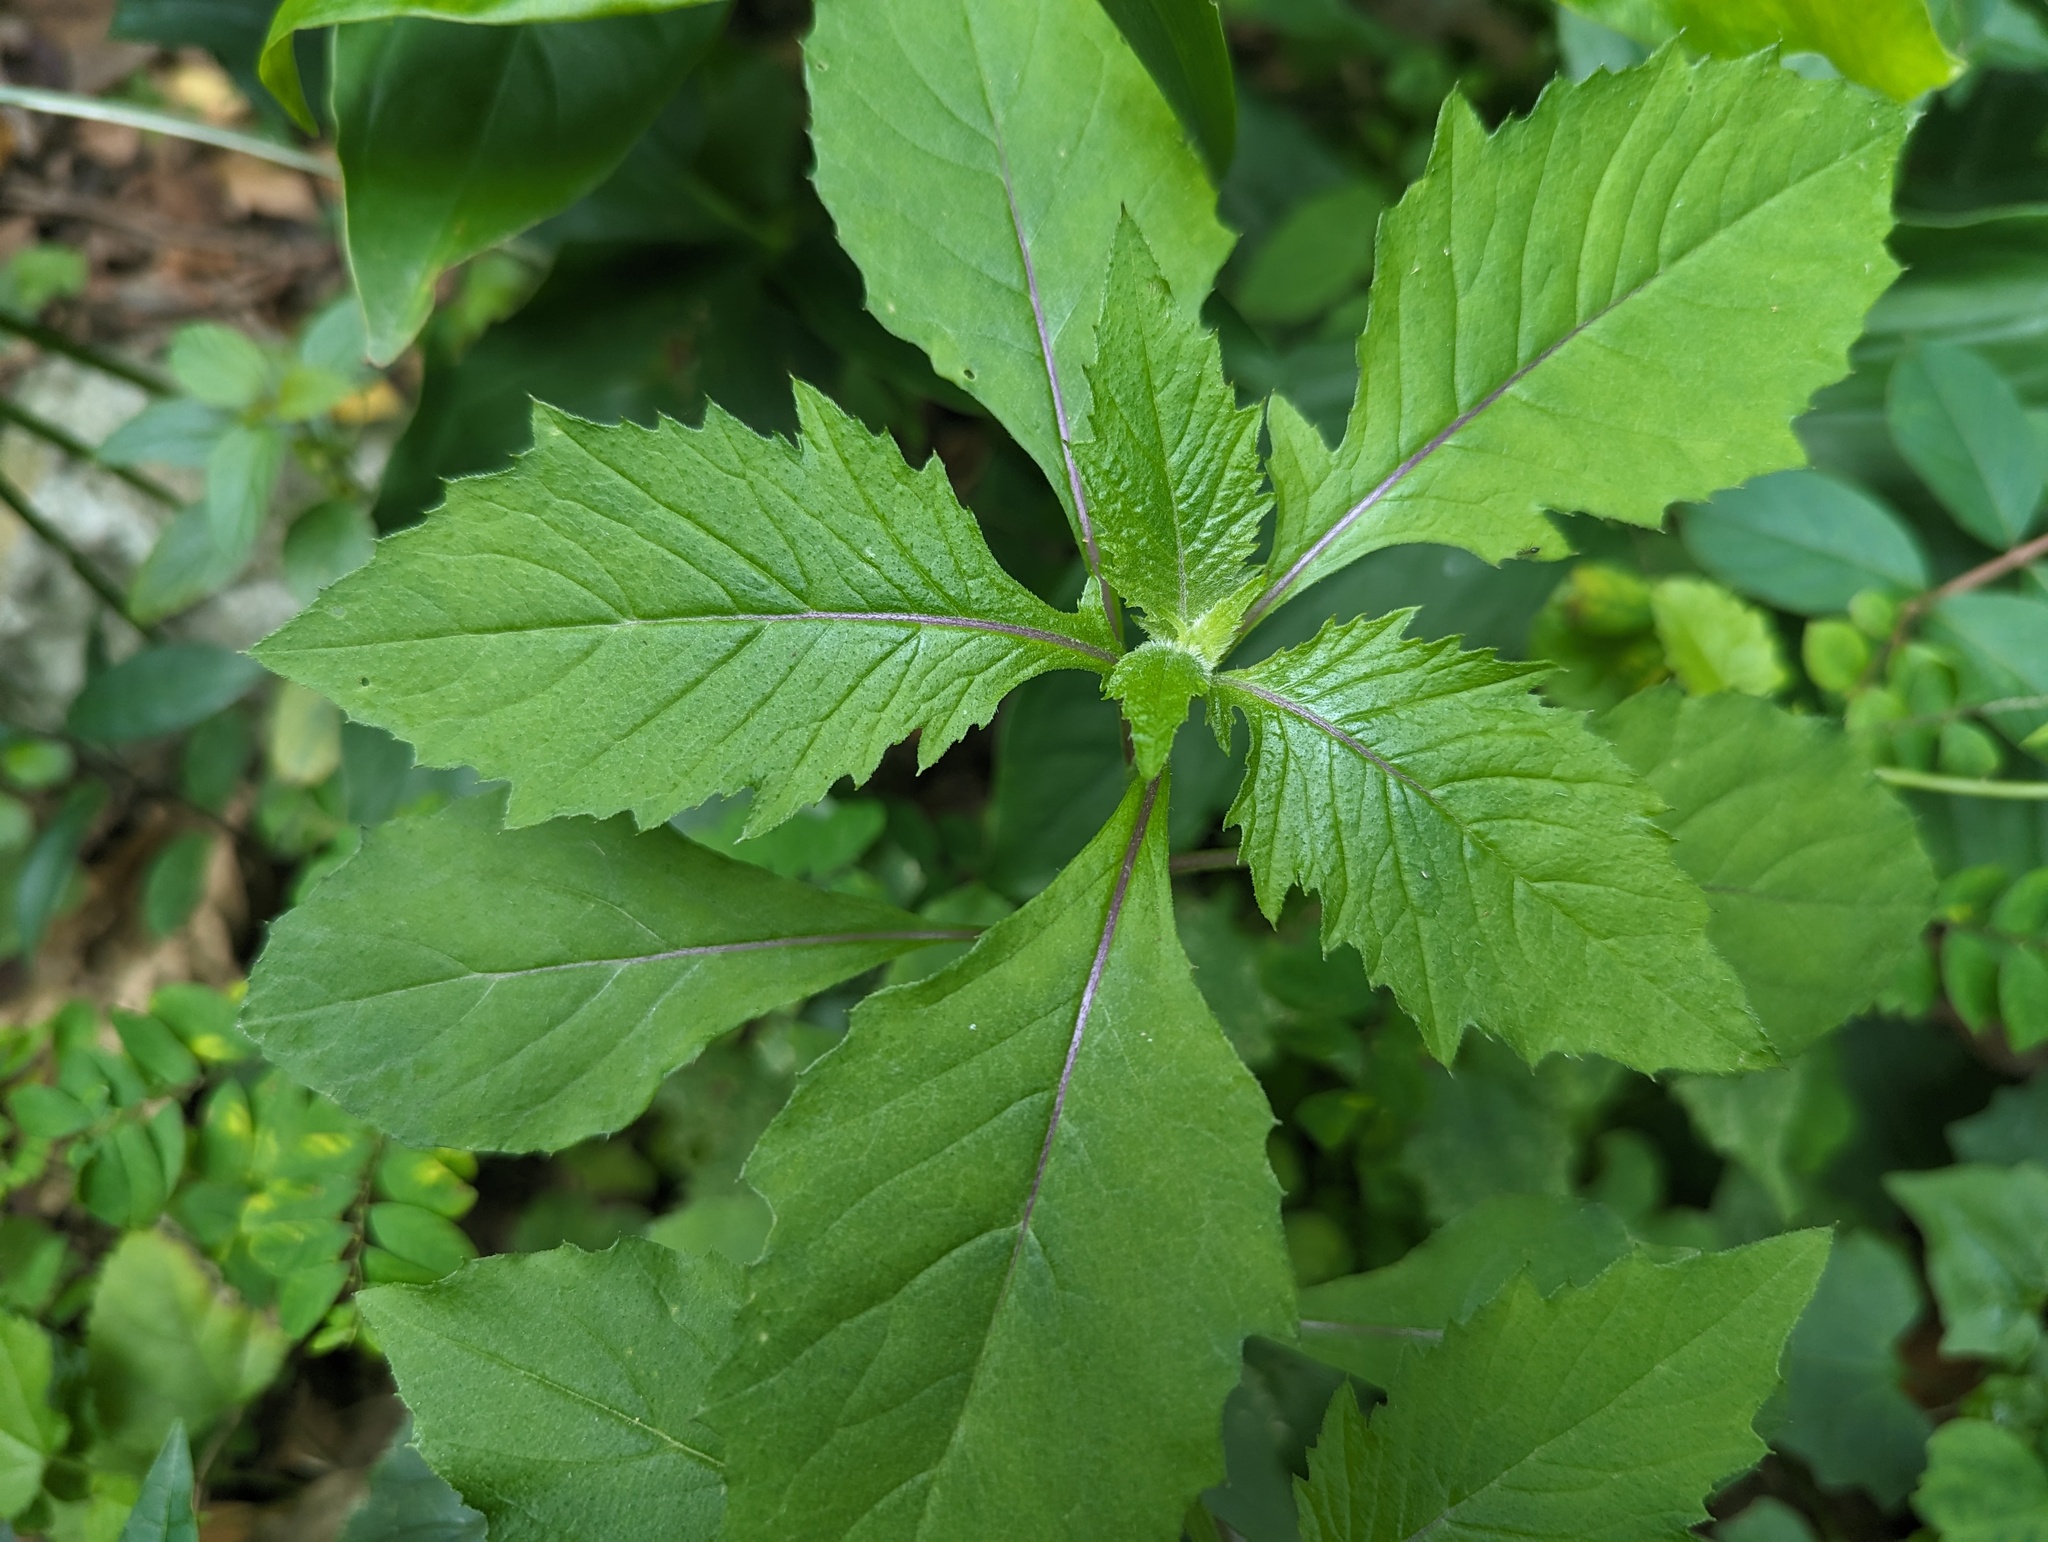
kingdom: Plantae
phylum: Tracheophyta
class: Magnoliopsida
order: Asterales
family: Asteraceae
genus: Crassocephalum
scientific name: Crassocephalum crepidioides
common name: Redflower ragleaf
